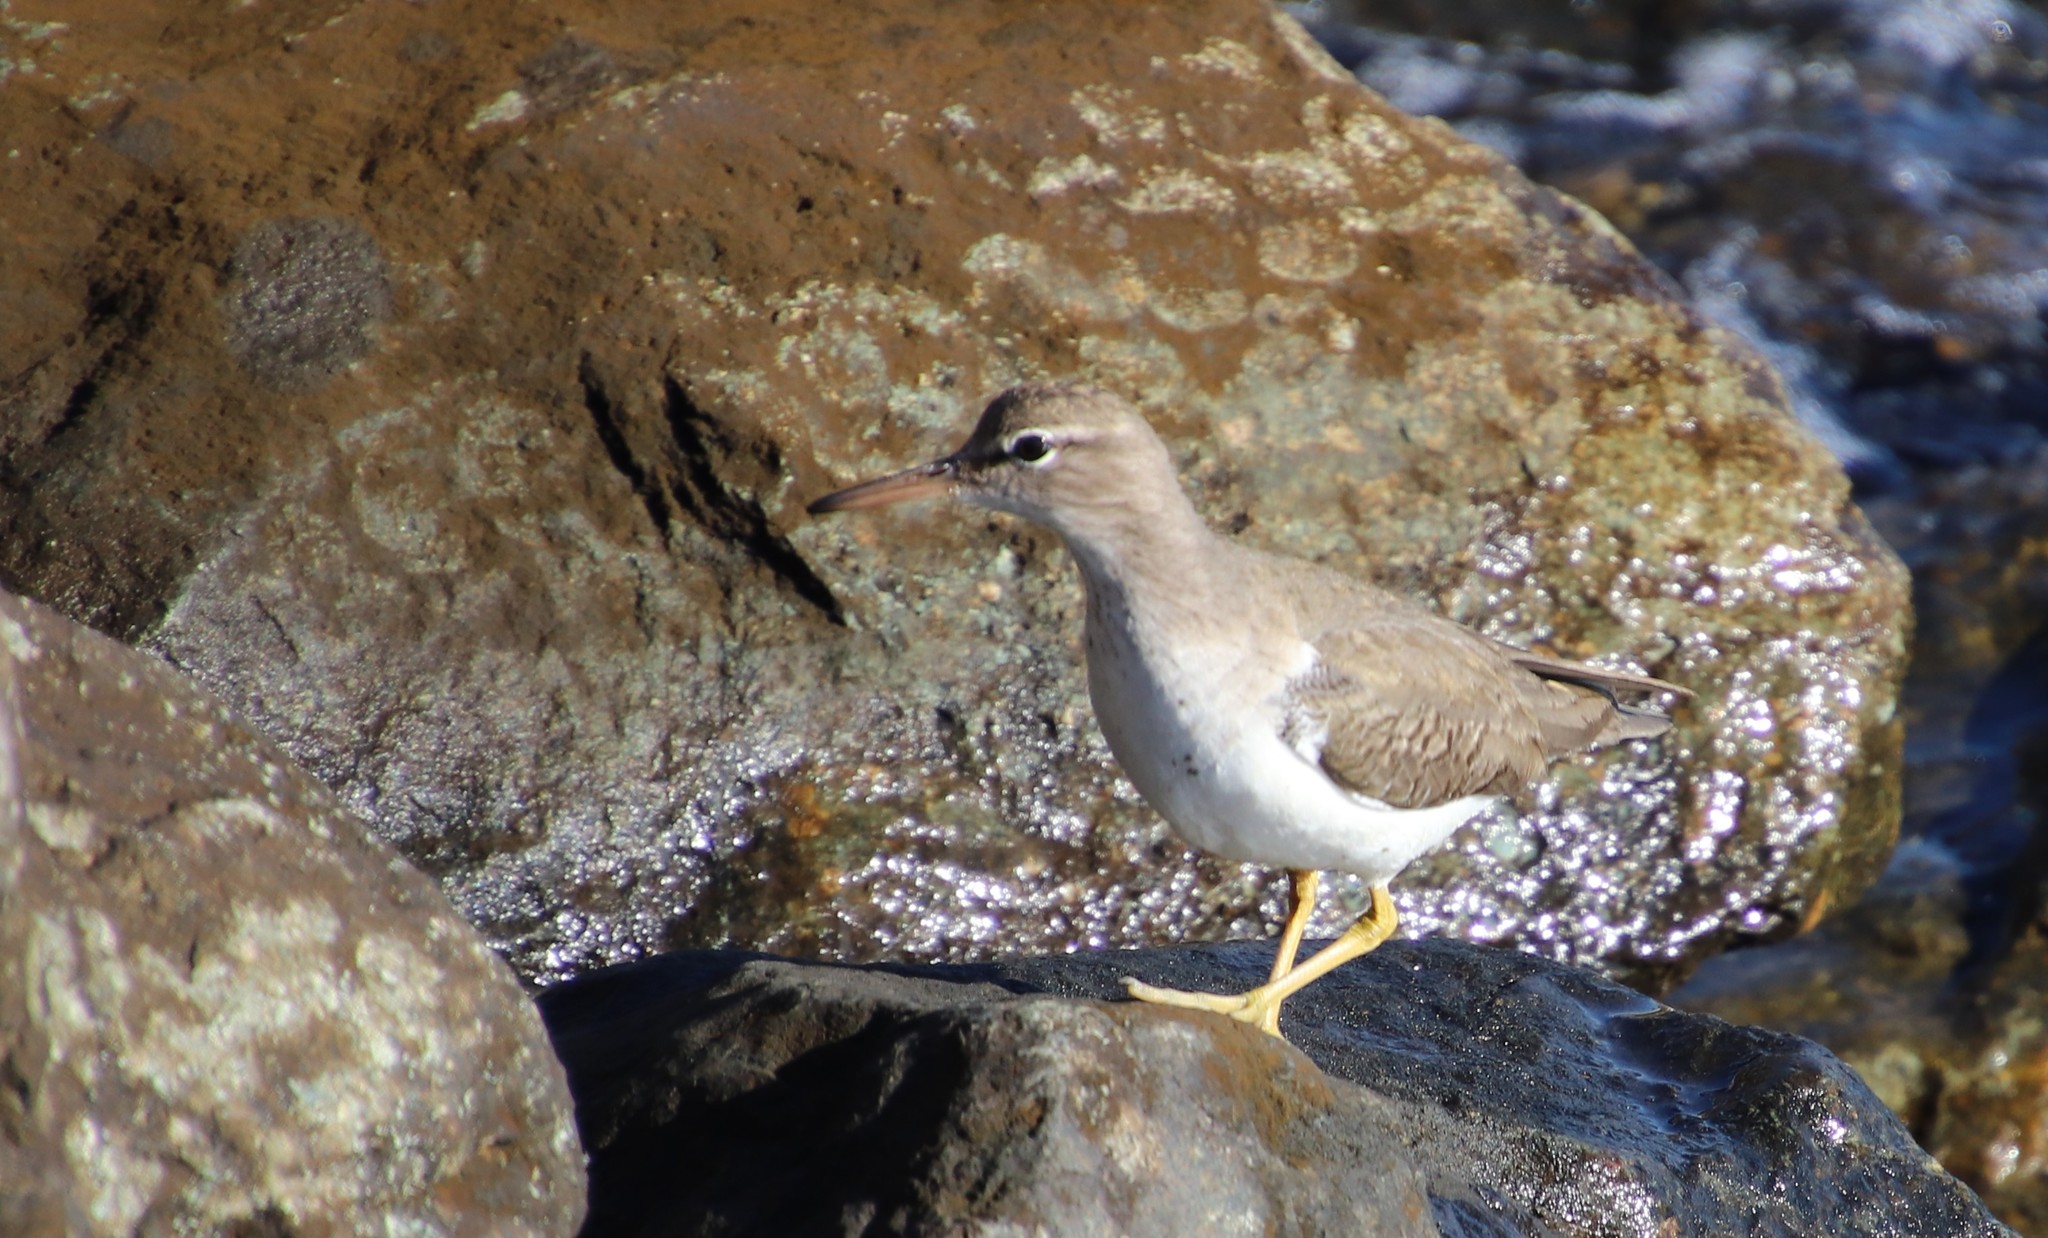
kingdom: Animalia
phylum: Chordata
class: Aves
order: Charadriiformes
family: Scolopacidae
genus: Actitis
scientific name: Actitis macularius
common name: Spotted sandpiper
